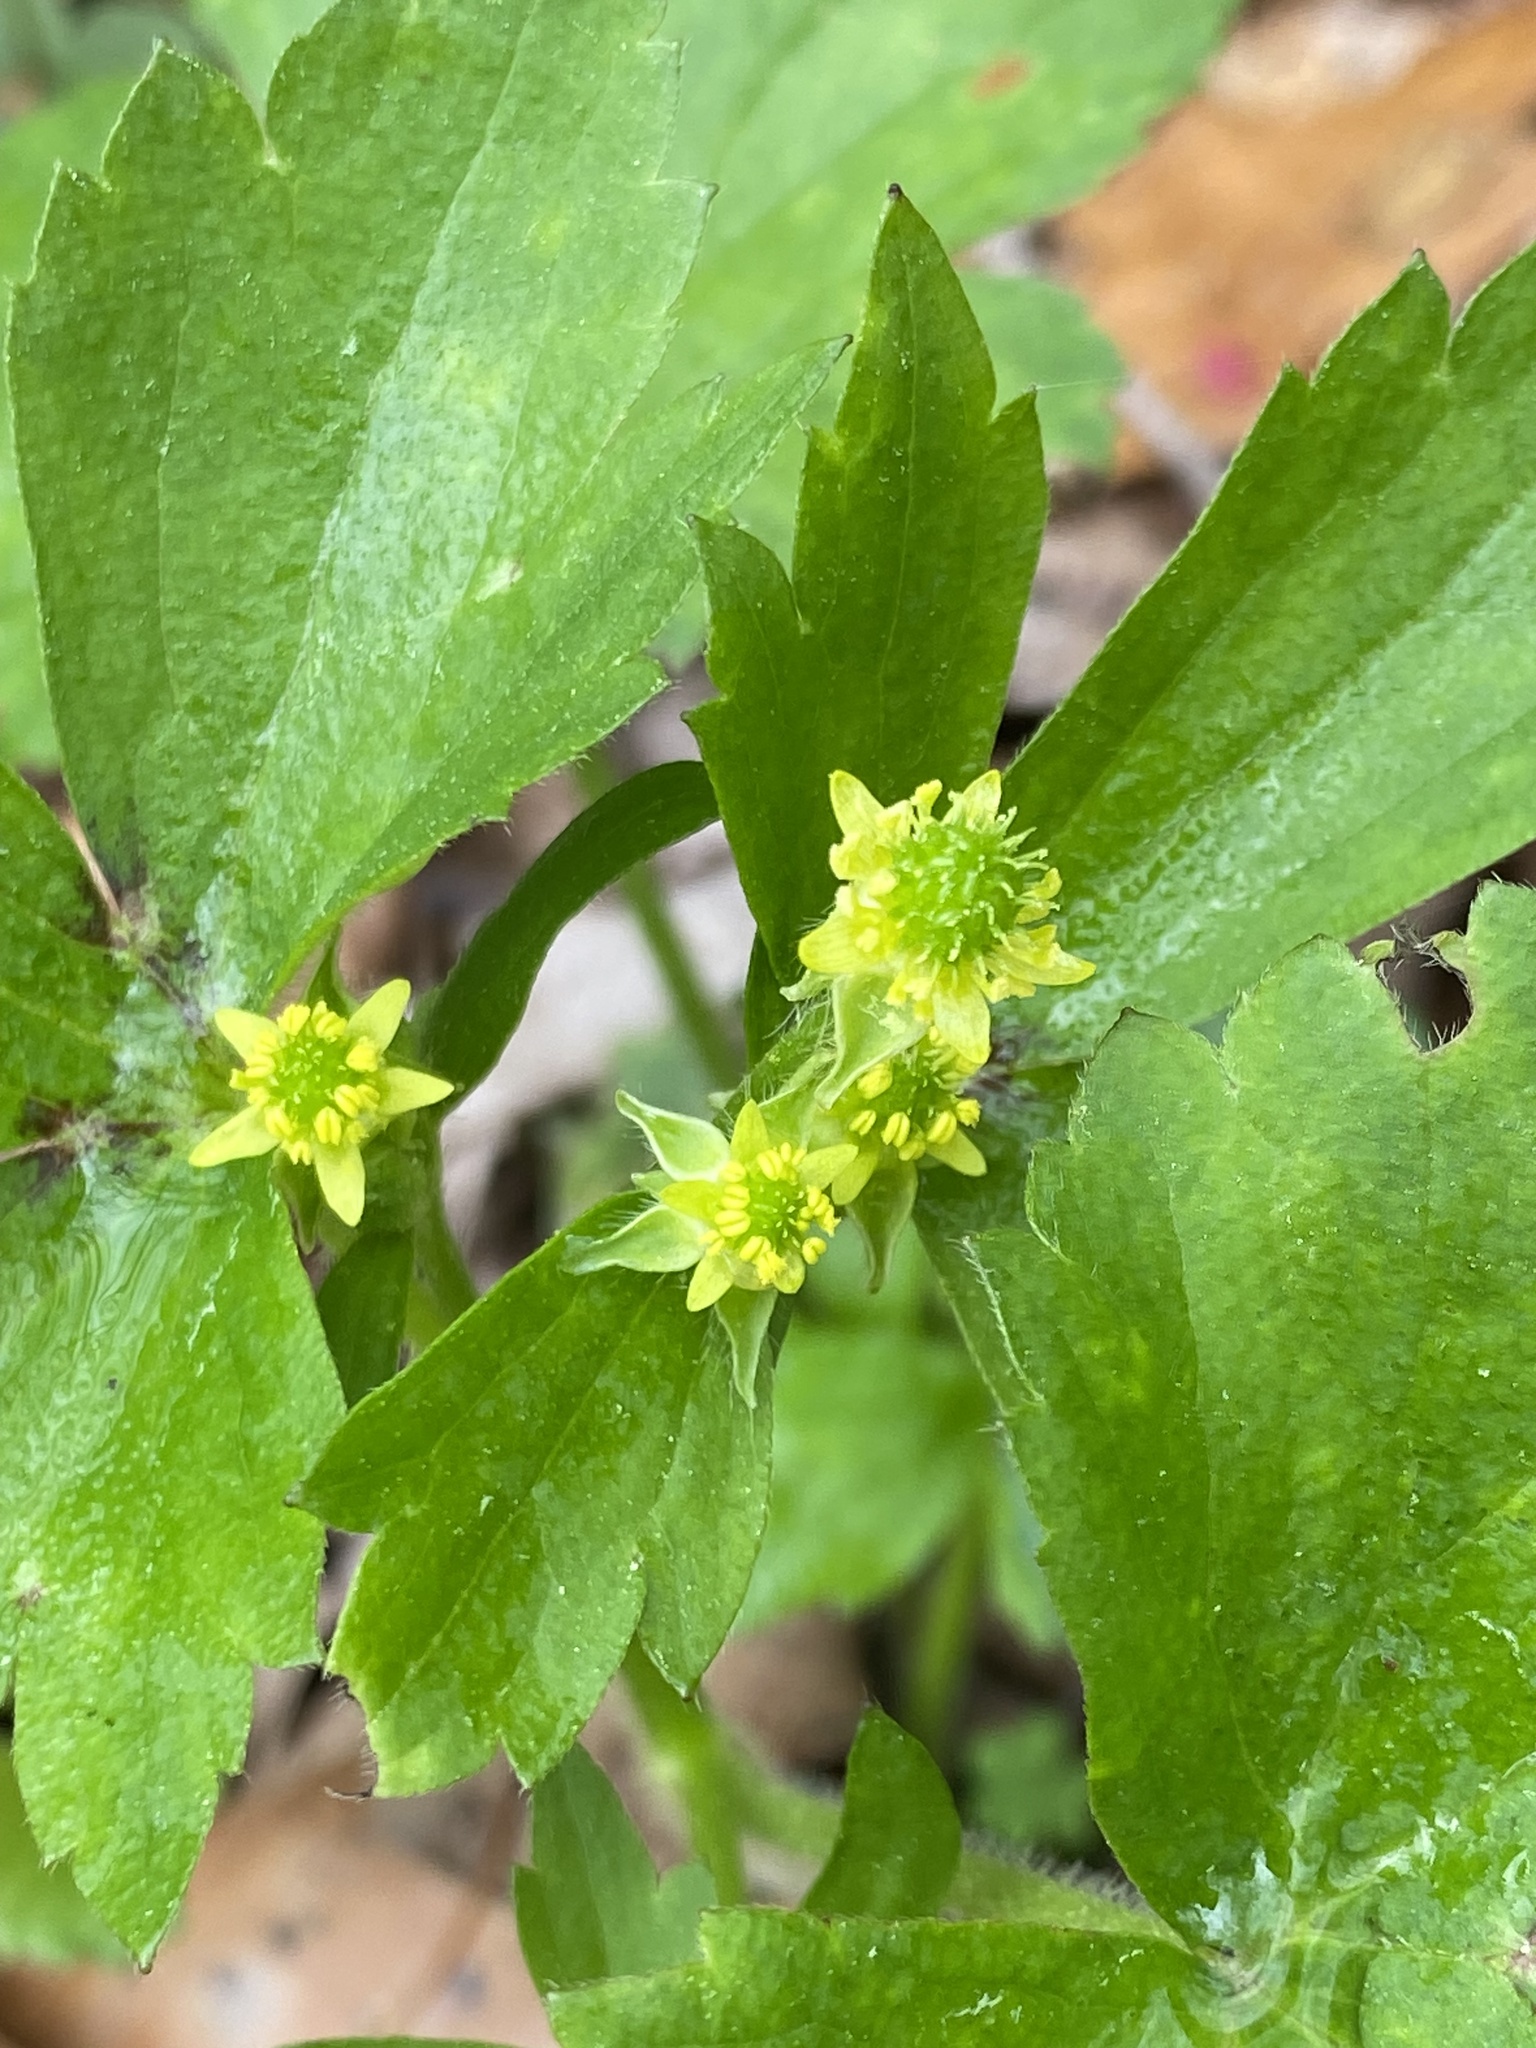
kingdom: Plantae
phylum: Tracheophyta
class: Magnoliopsida
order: Ranunculales
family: Ranunculaceae
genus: Ranunculus
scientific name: Ranunculus recurvatus
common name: Blisterwort
